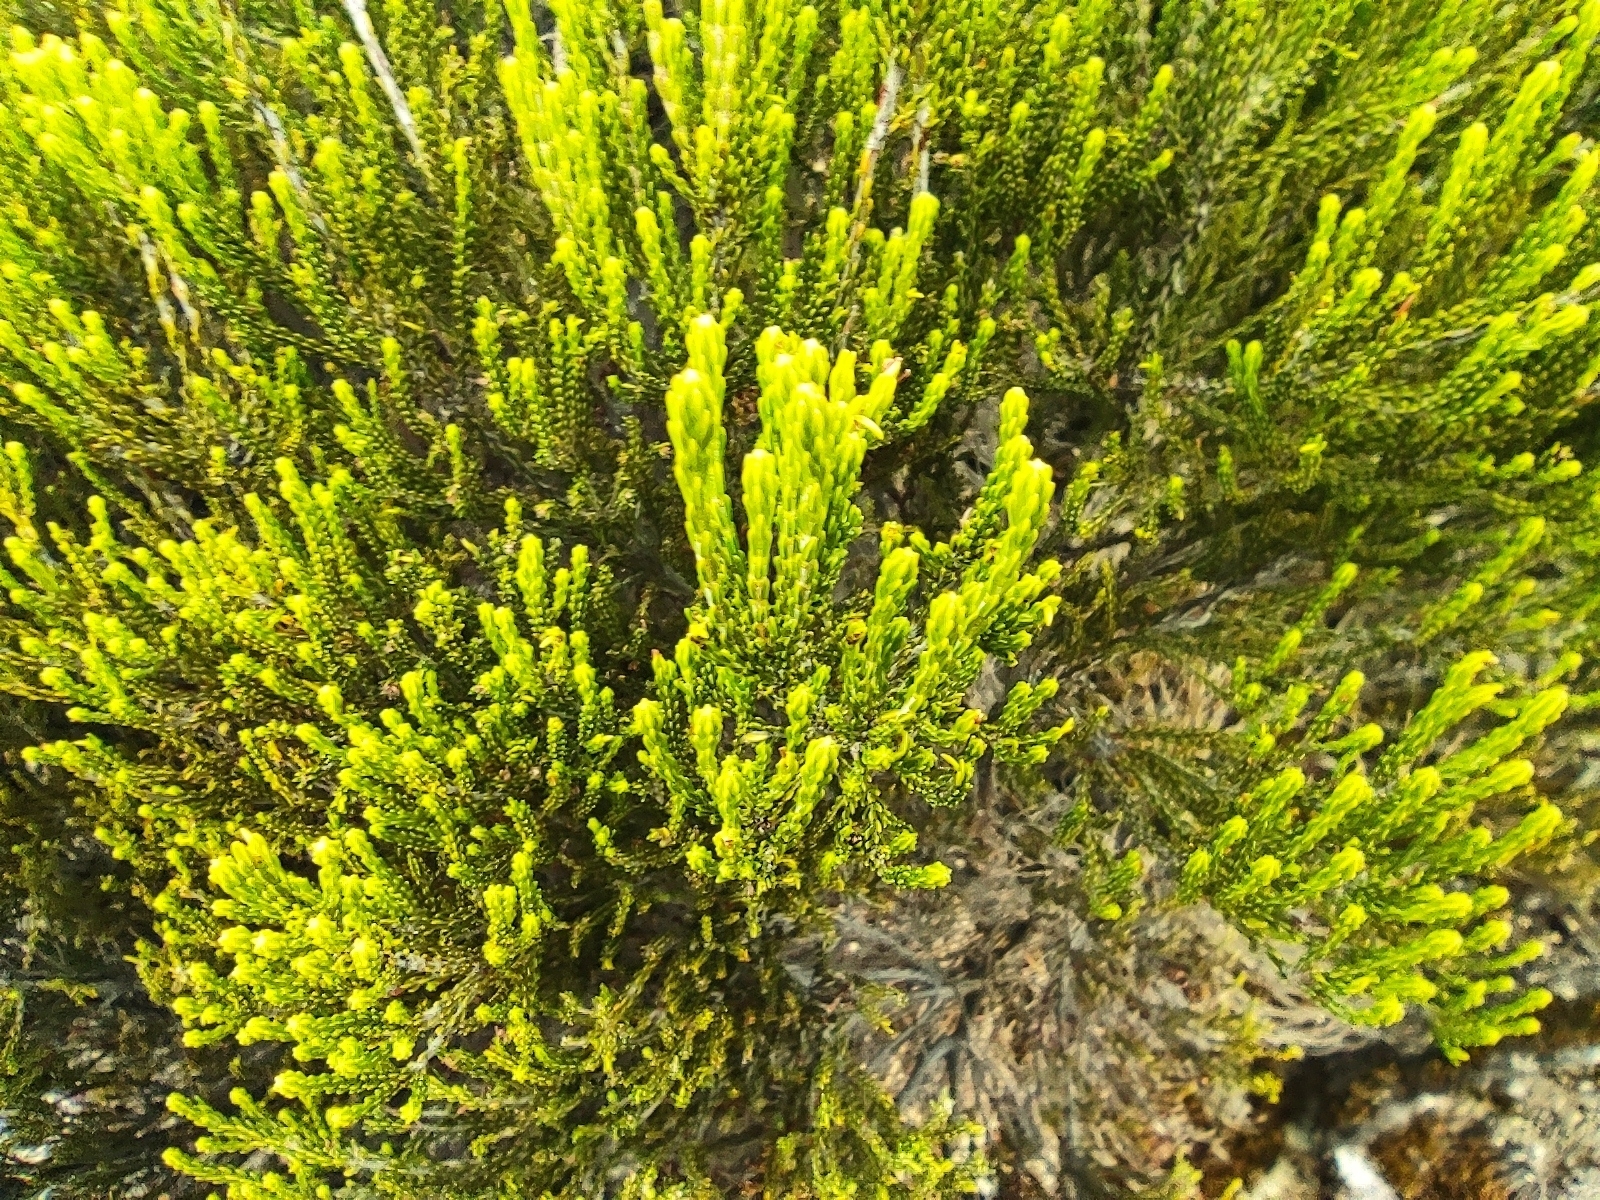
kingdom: Plantae
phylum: Tracheophyta
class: Magnoliopsida
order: Ericales
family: Ericaceae
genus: Erica
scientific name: Erica reunionensis
